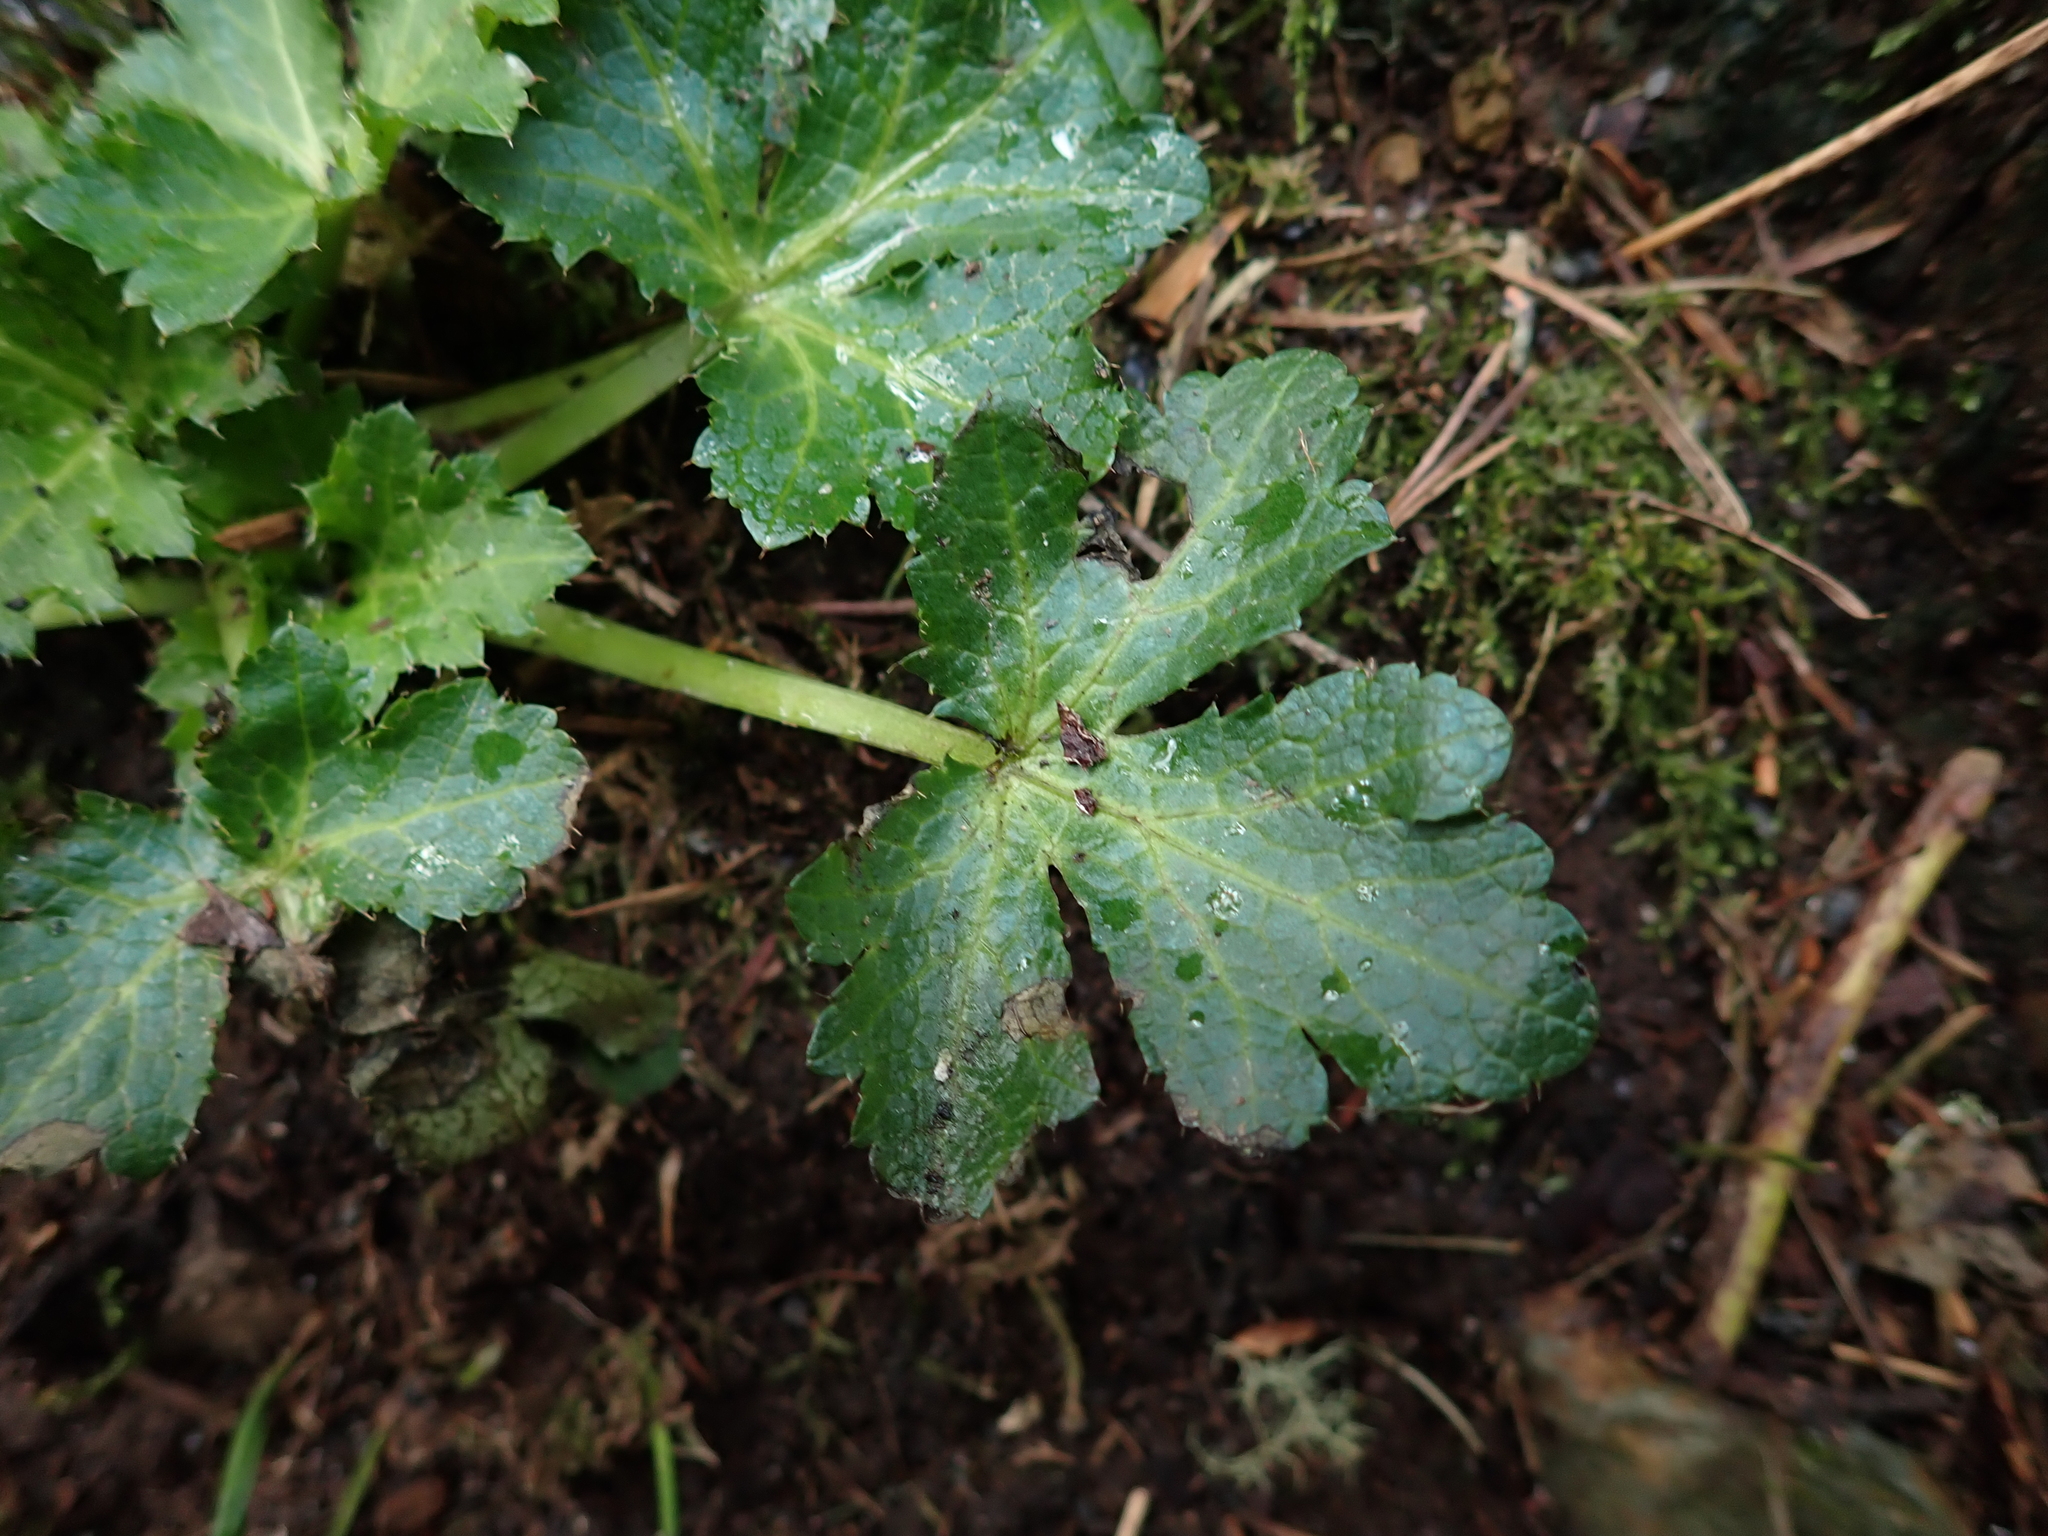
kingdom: Plantae
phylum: Tracheophyta
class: Magnoliopsida
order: Apiales
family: Apiaceae
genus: Sanicula
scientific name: Sanicula crassicaulis
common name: Western snakeroot
